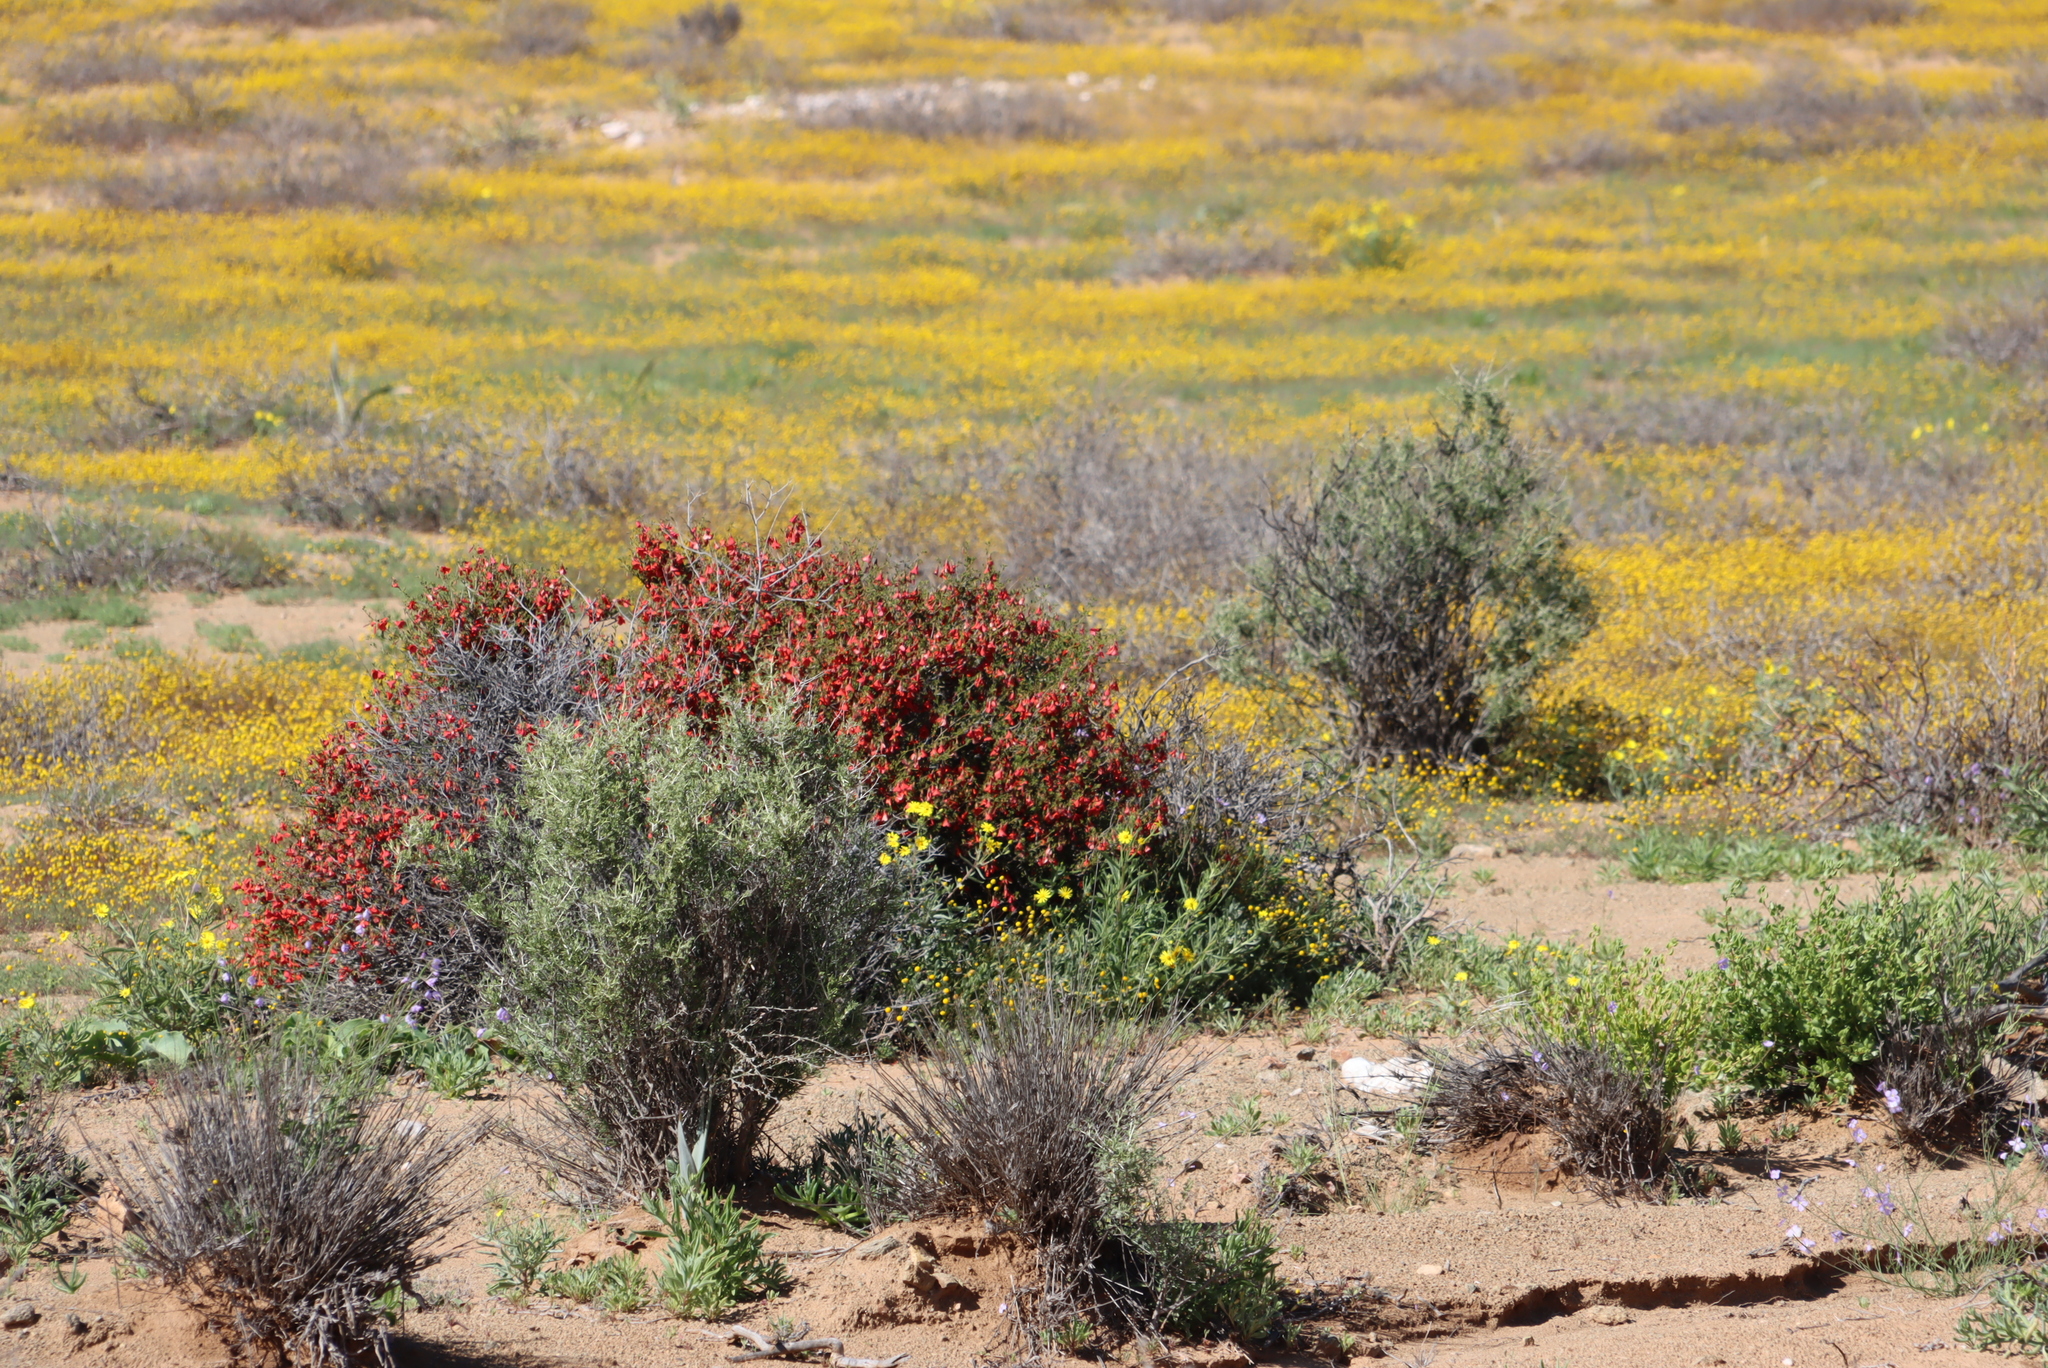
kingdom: Plantae
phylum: Tracheophyta
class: Magnoliopsida
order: Malvales
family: Malvaceae
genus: Hermannia
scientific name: Hermannia stricta
